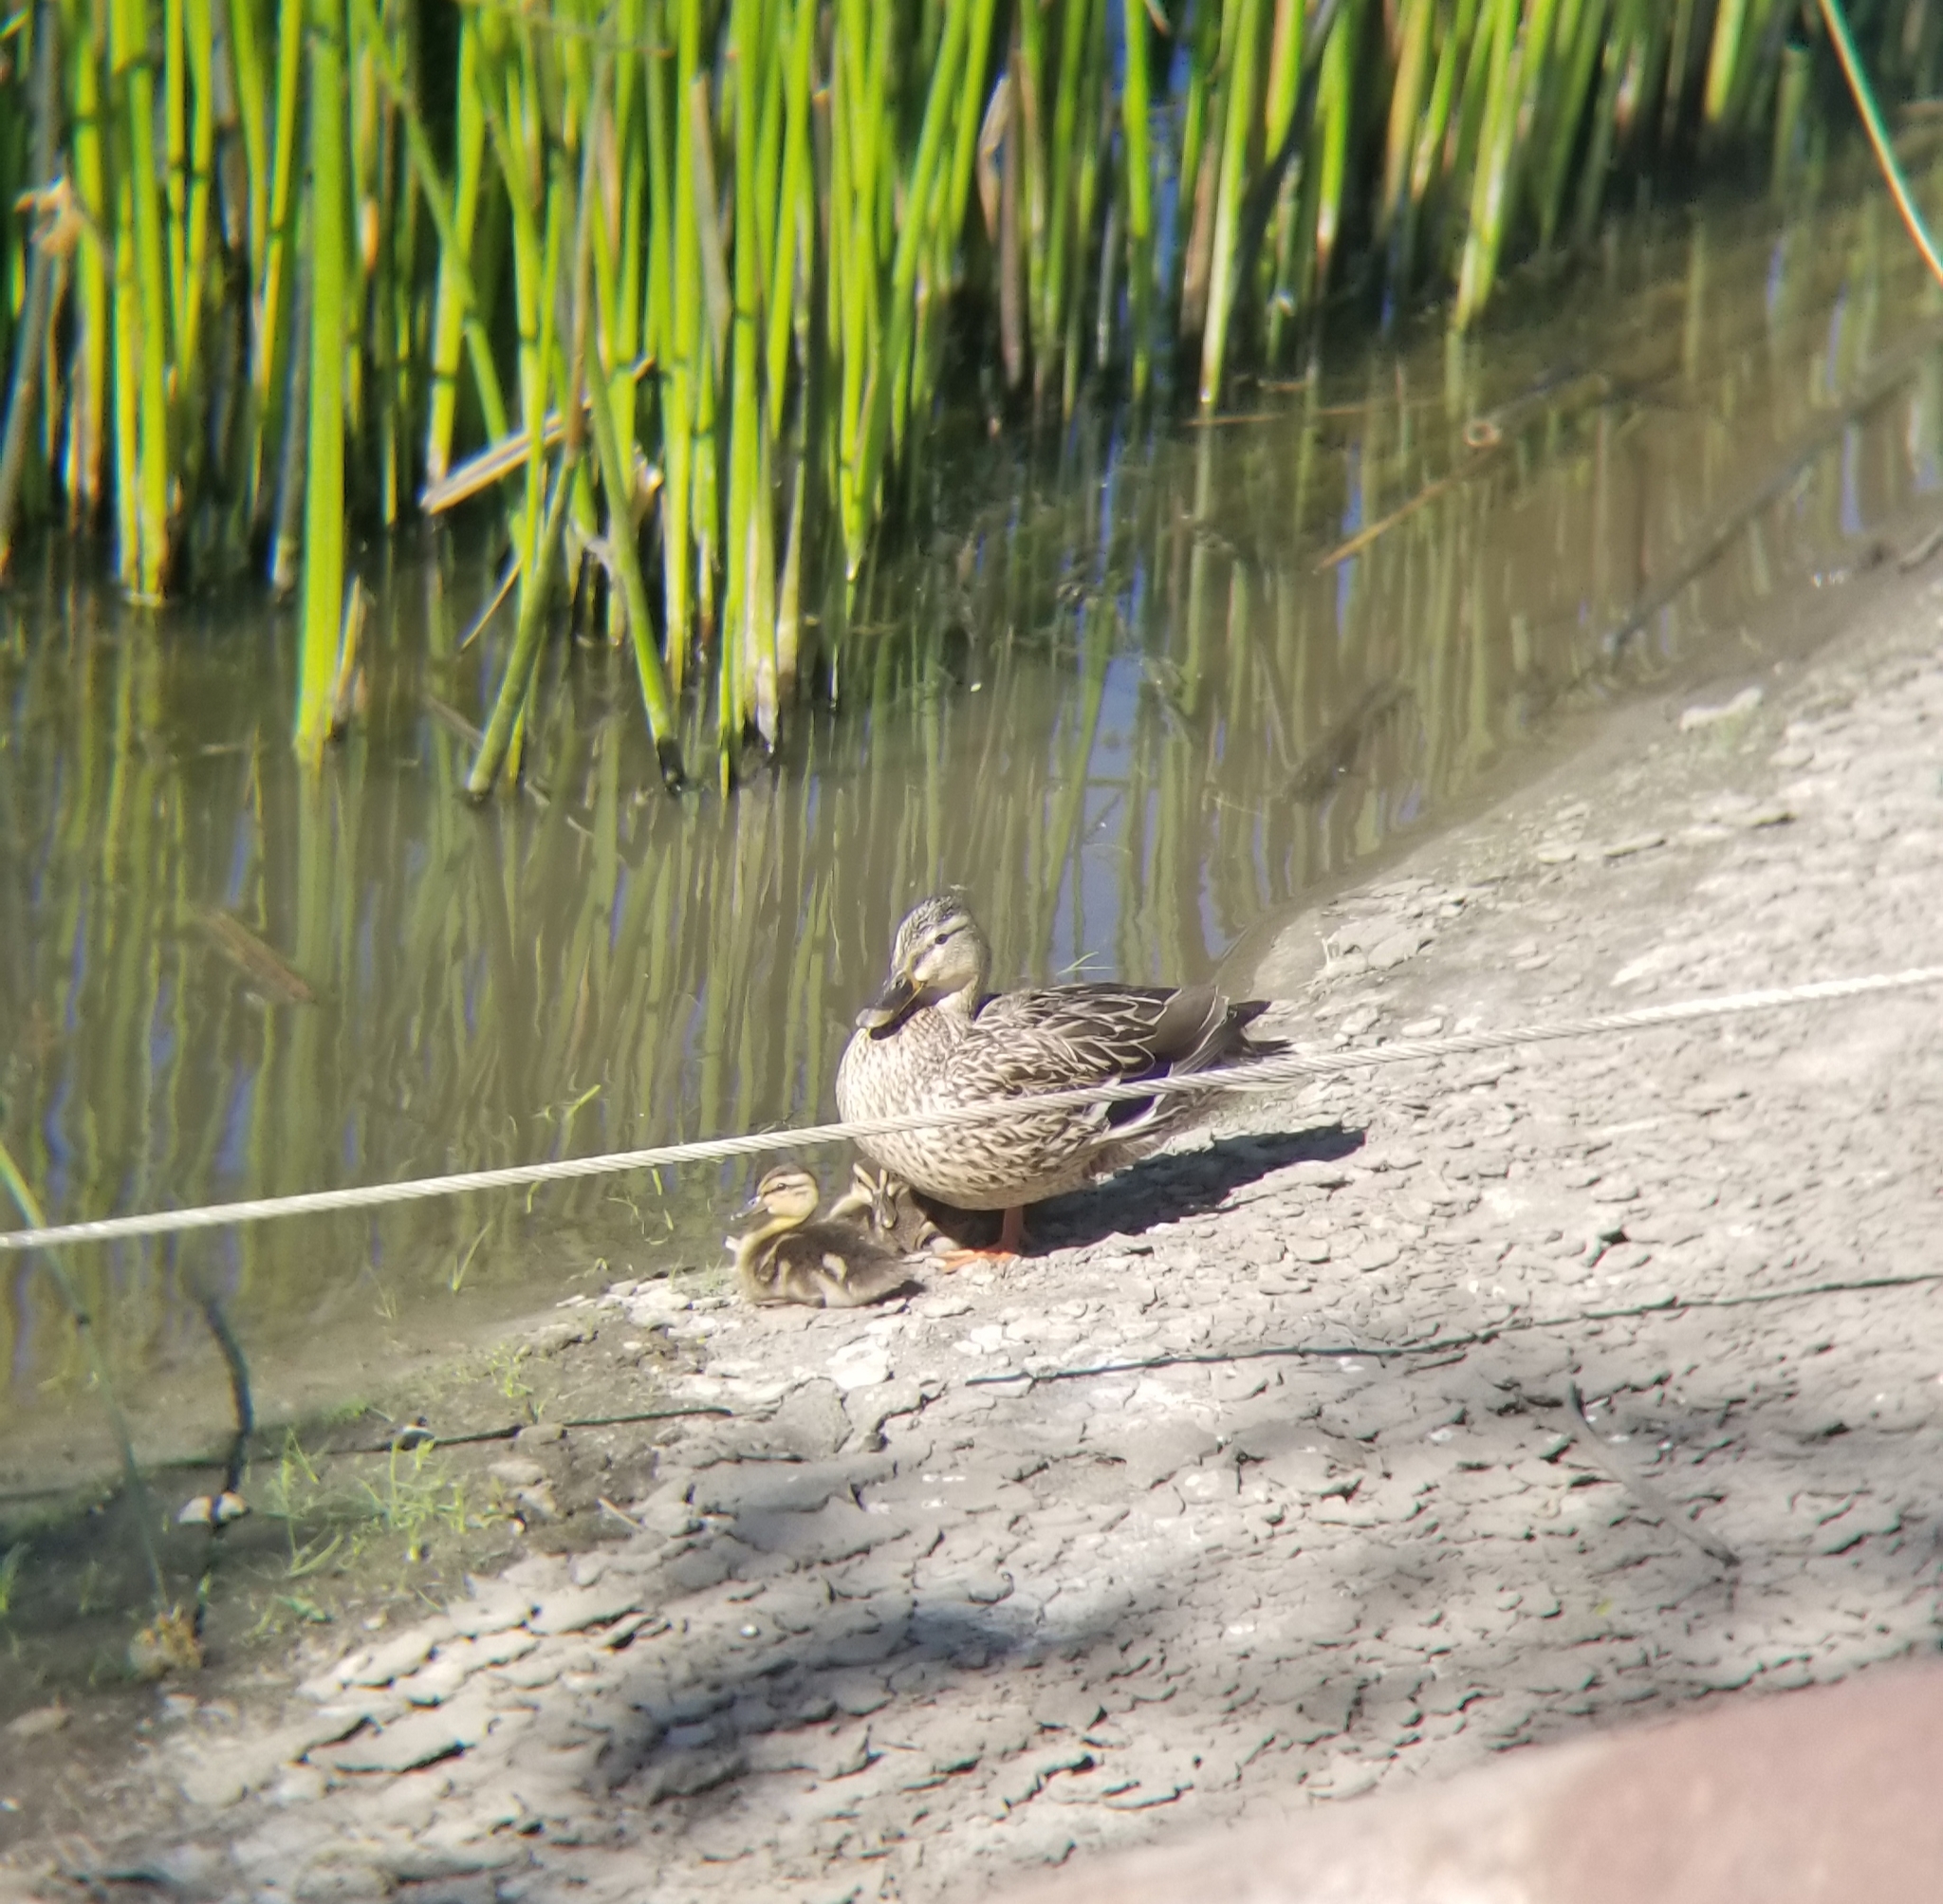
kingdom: Animalia
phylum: Chordata
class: Aves
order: Anseriformes
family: Anatidae
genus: Anas
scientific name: Anas platyrhynchos
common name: Mallard
